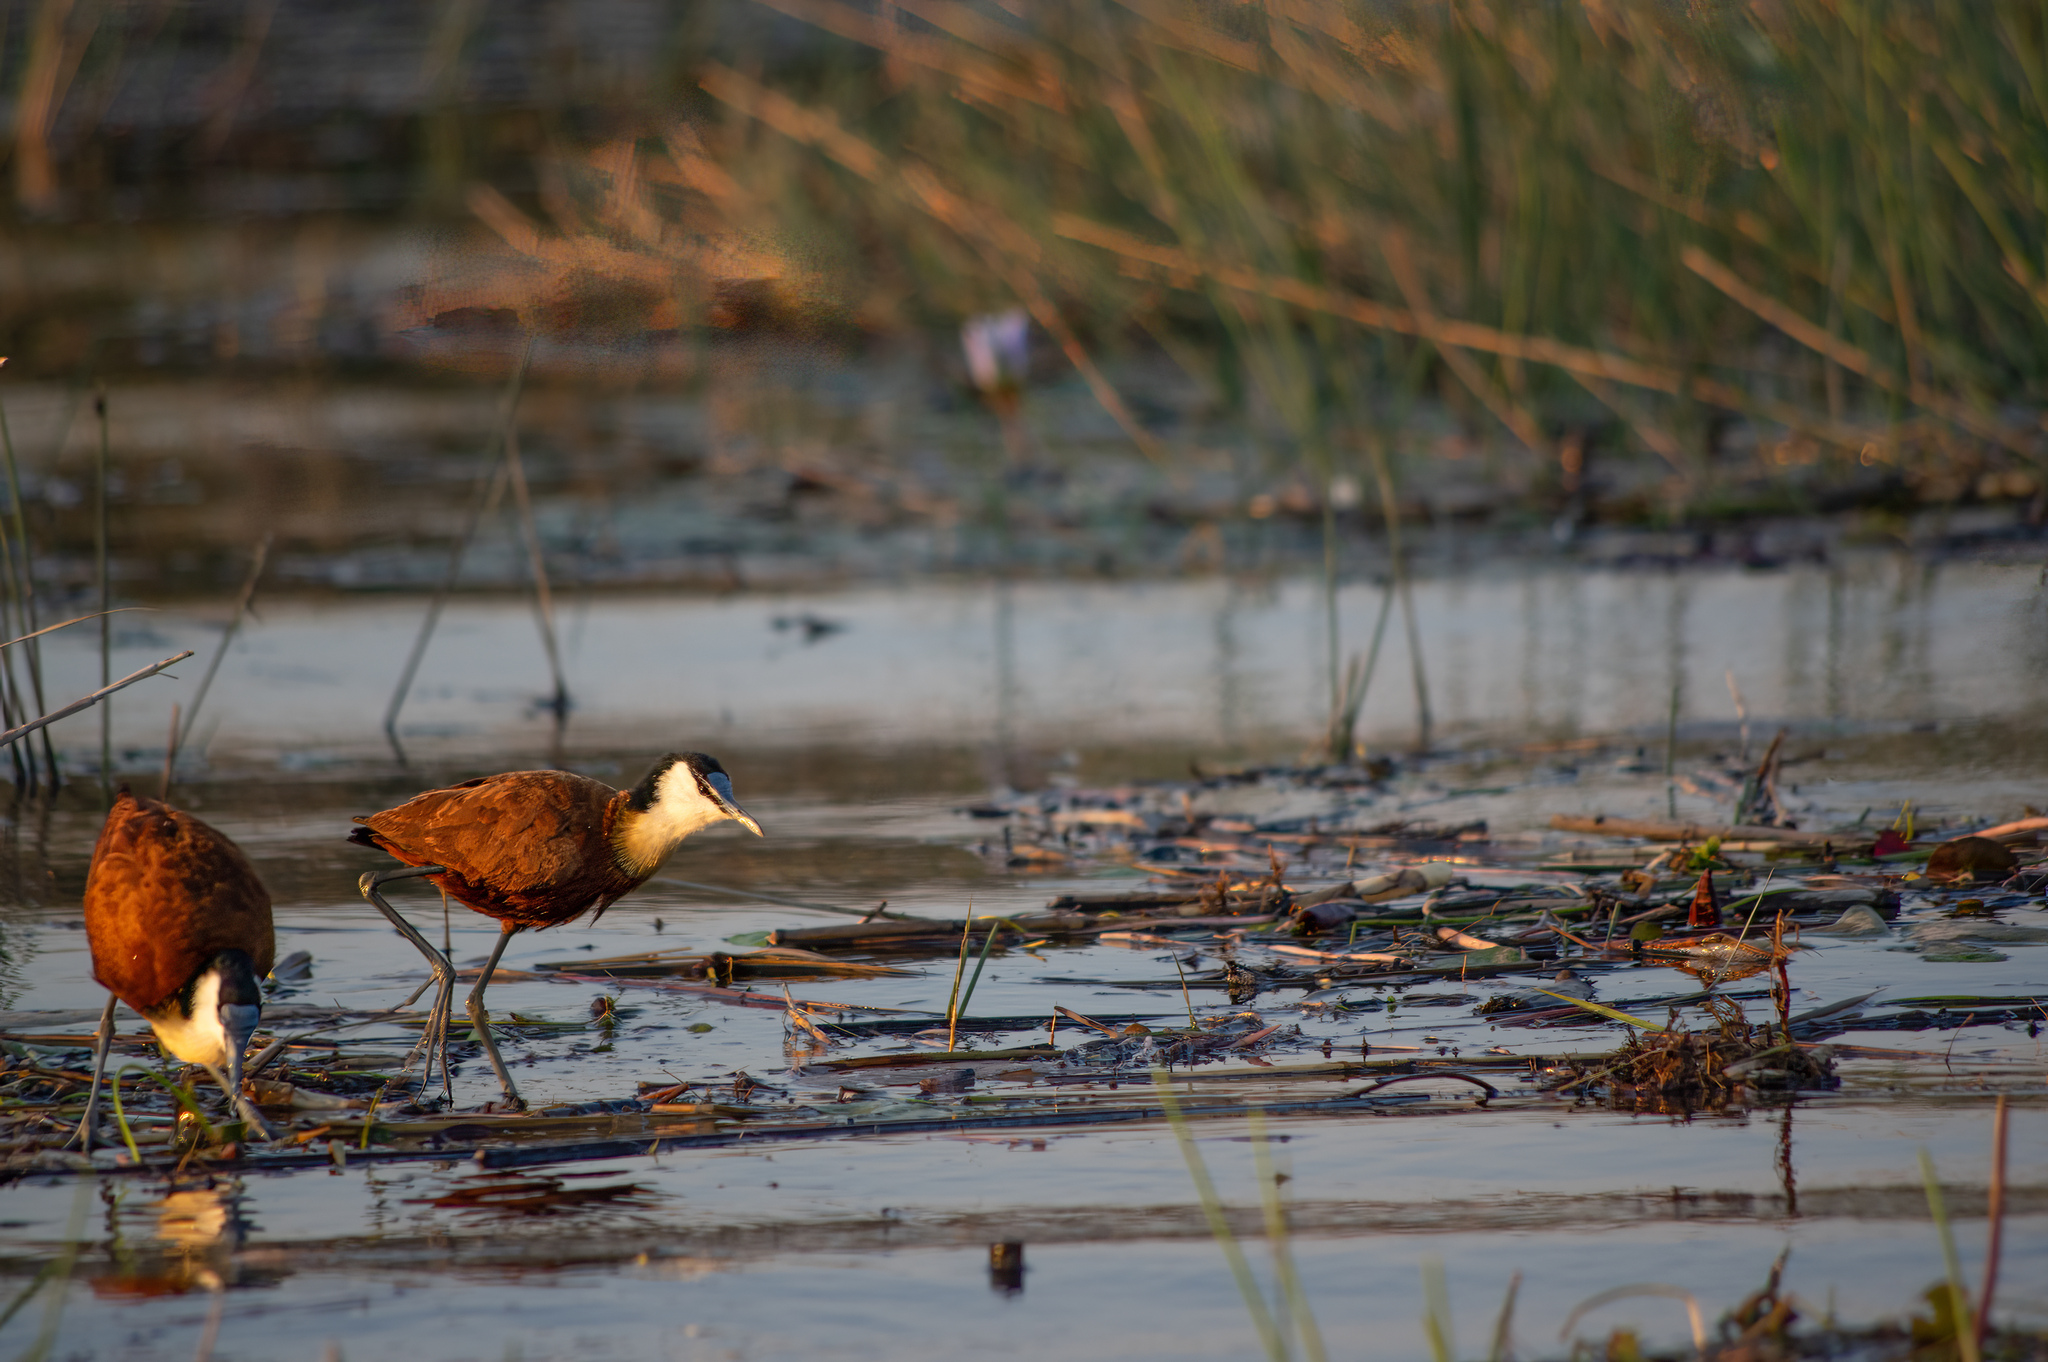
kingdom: Animalia
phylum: Chordata
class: Aves
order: Charadriiformes
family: Jacanidae
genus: Actophilornis
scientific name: Actophilornis africanus
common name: African jacana
